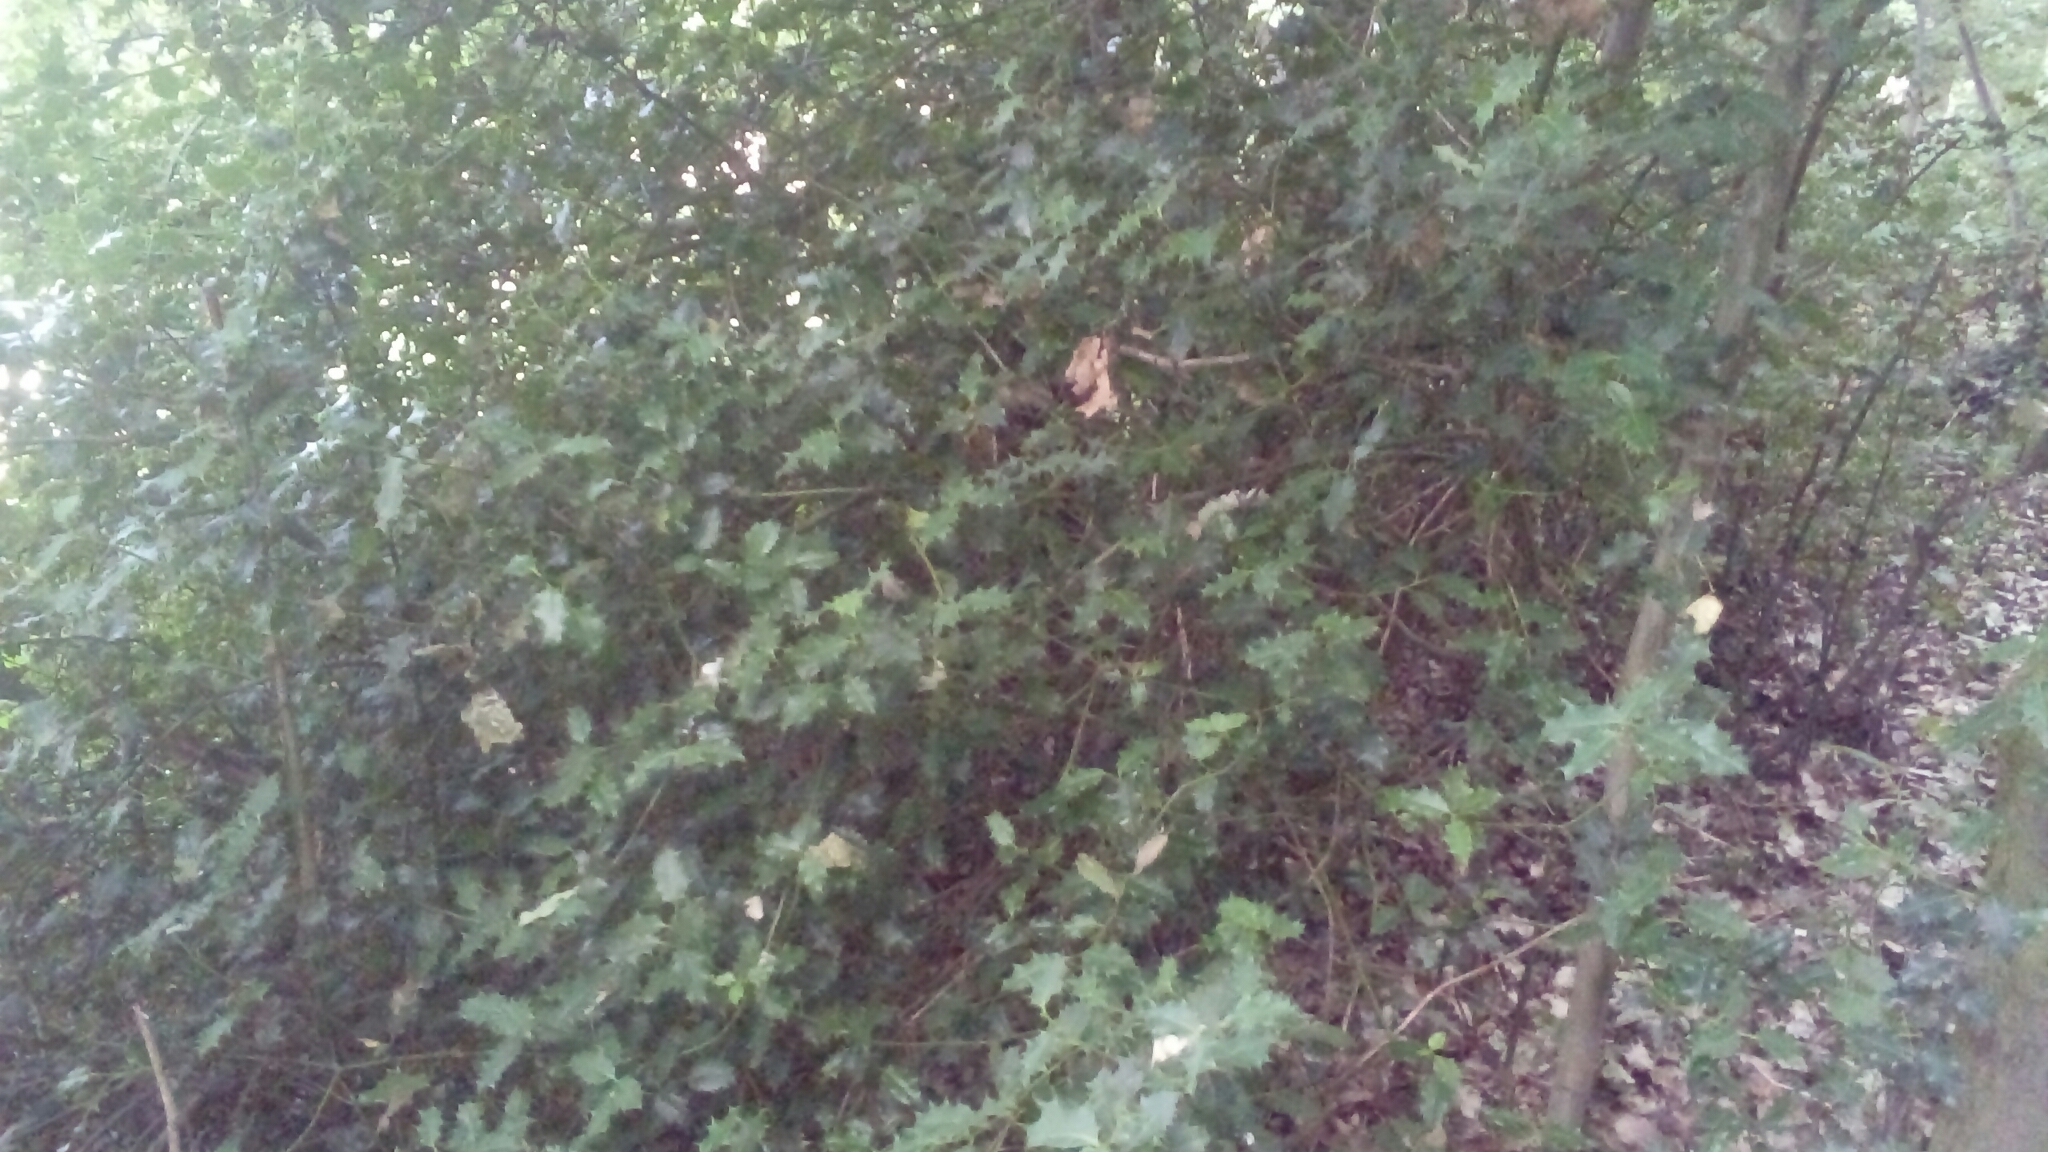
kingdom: Plantae
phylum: Tracheophyta
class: Magnoliopsida
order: Aquifoliales
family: Aquifoliaceae
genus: Ilex
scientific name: Ilex aquifolium
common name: English holly
